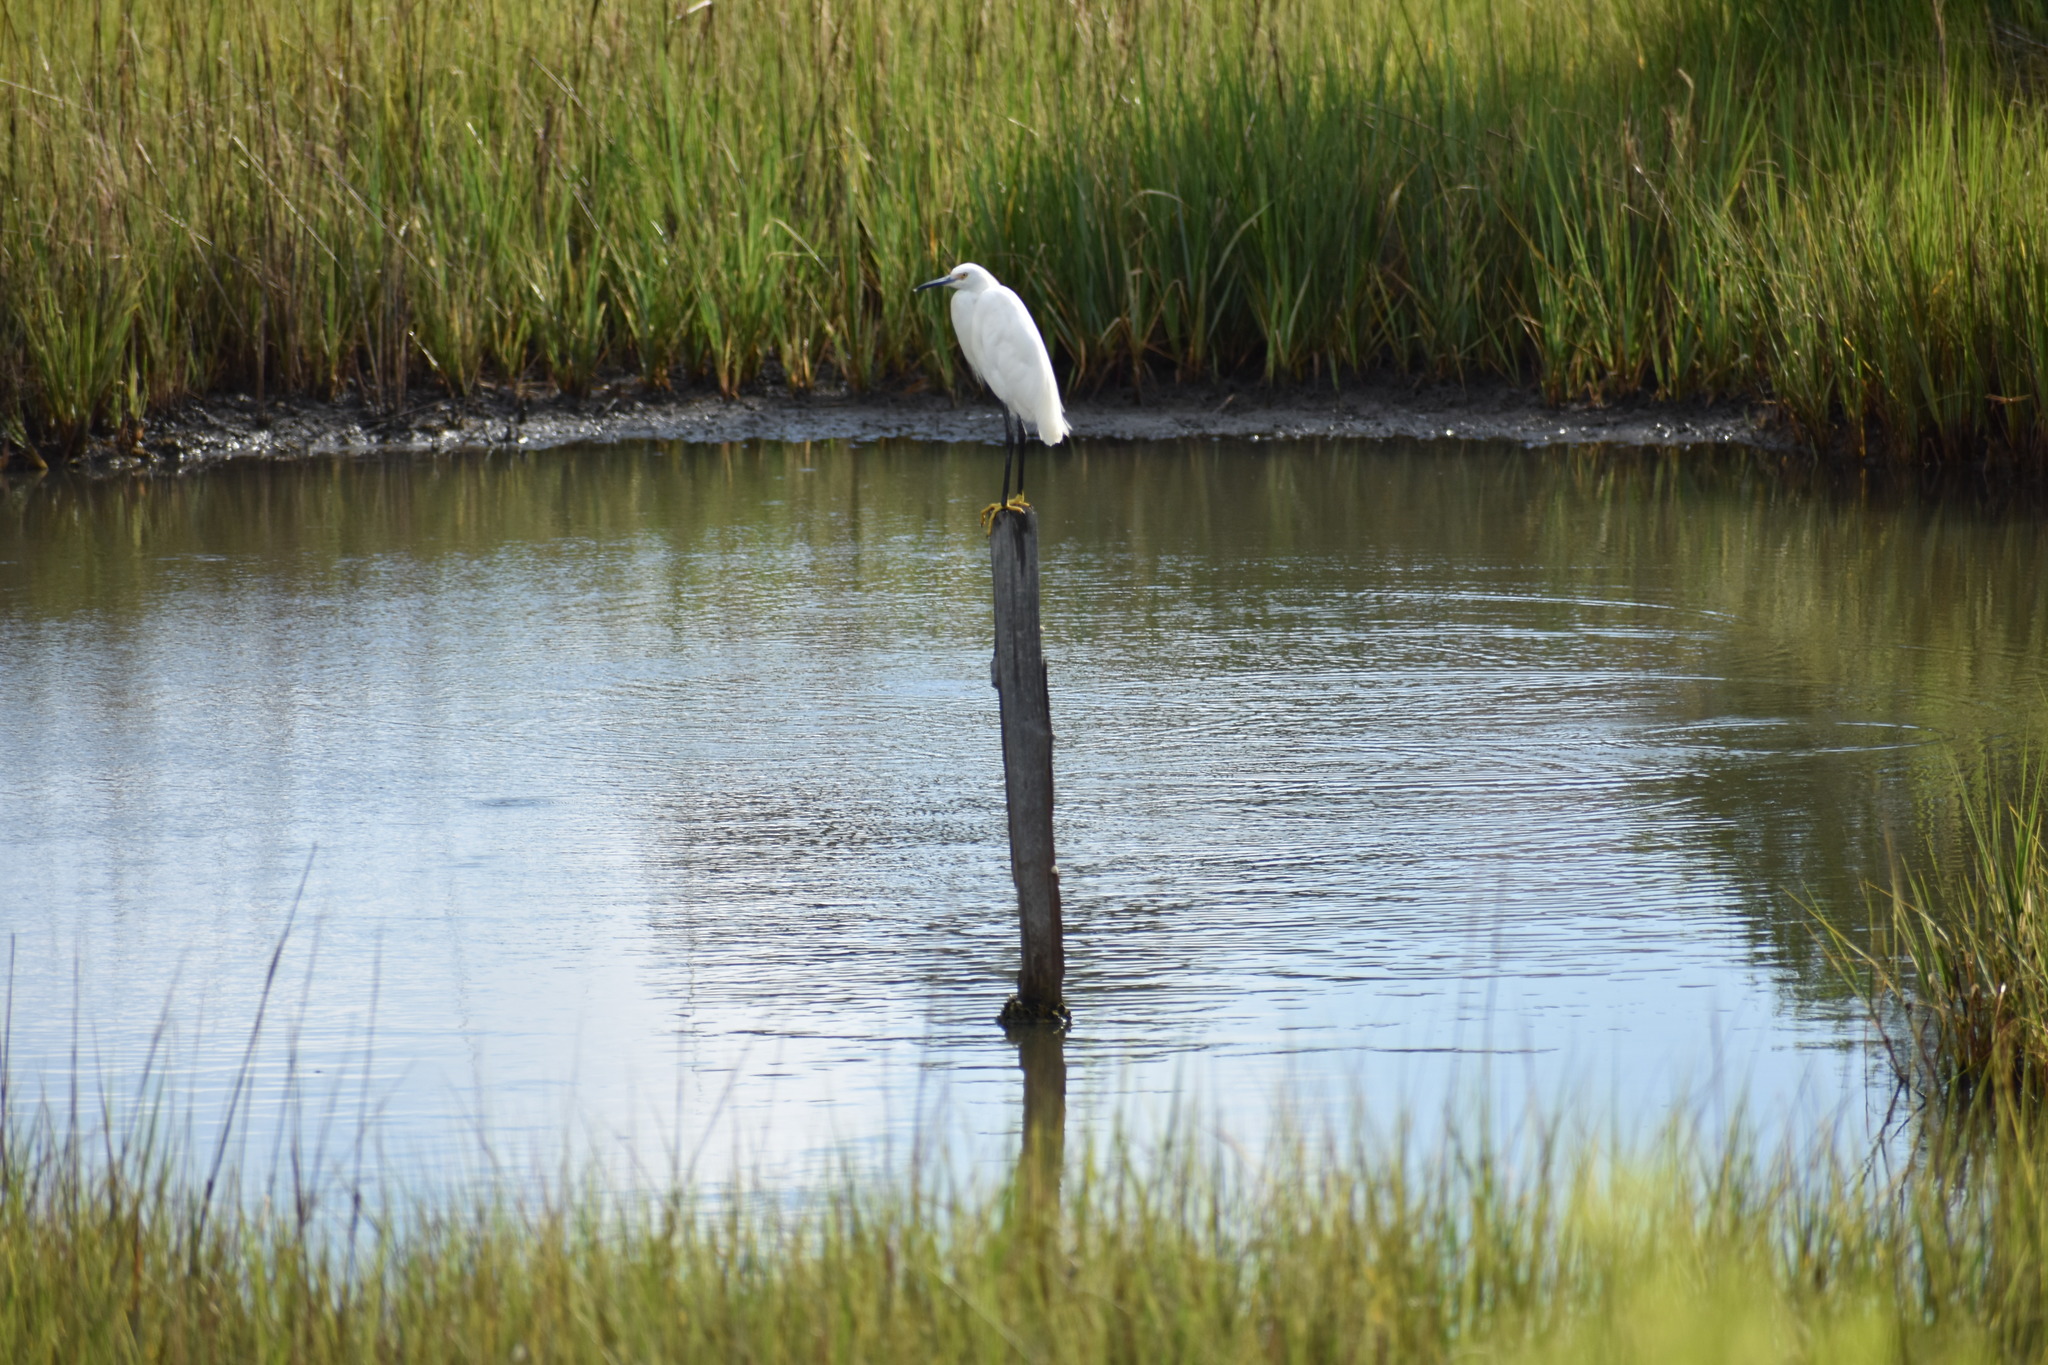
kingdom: Animalia
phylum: Chordata
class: Aves
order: Pelecaniformes
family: Ardeidae
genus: Egretta
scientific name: Egretta thula
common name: Snowy egret
